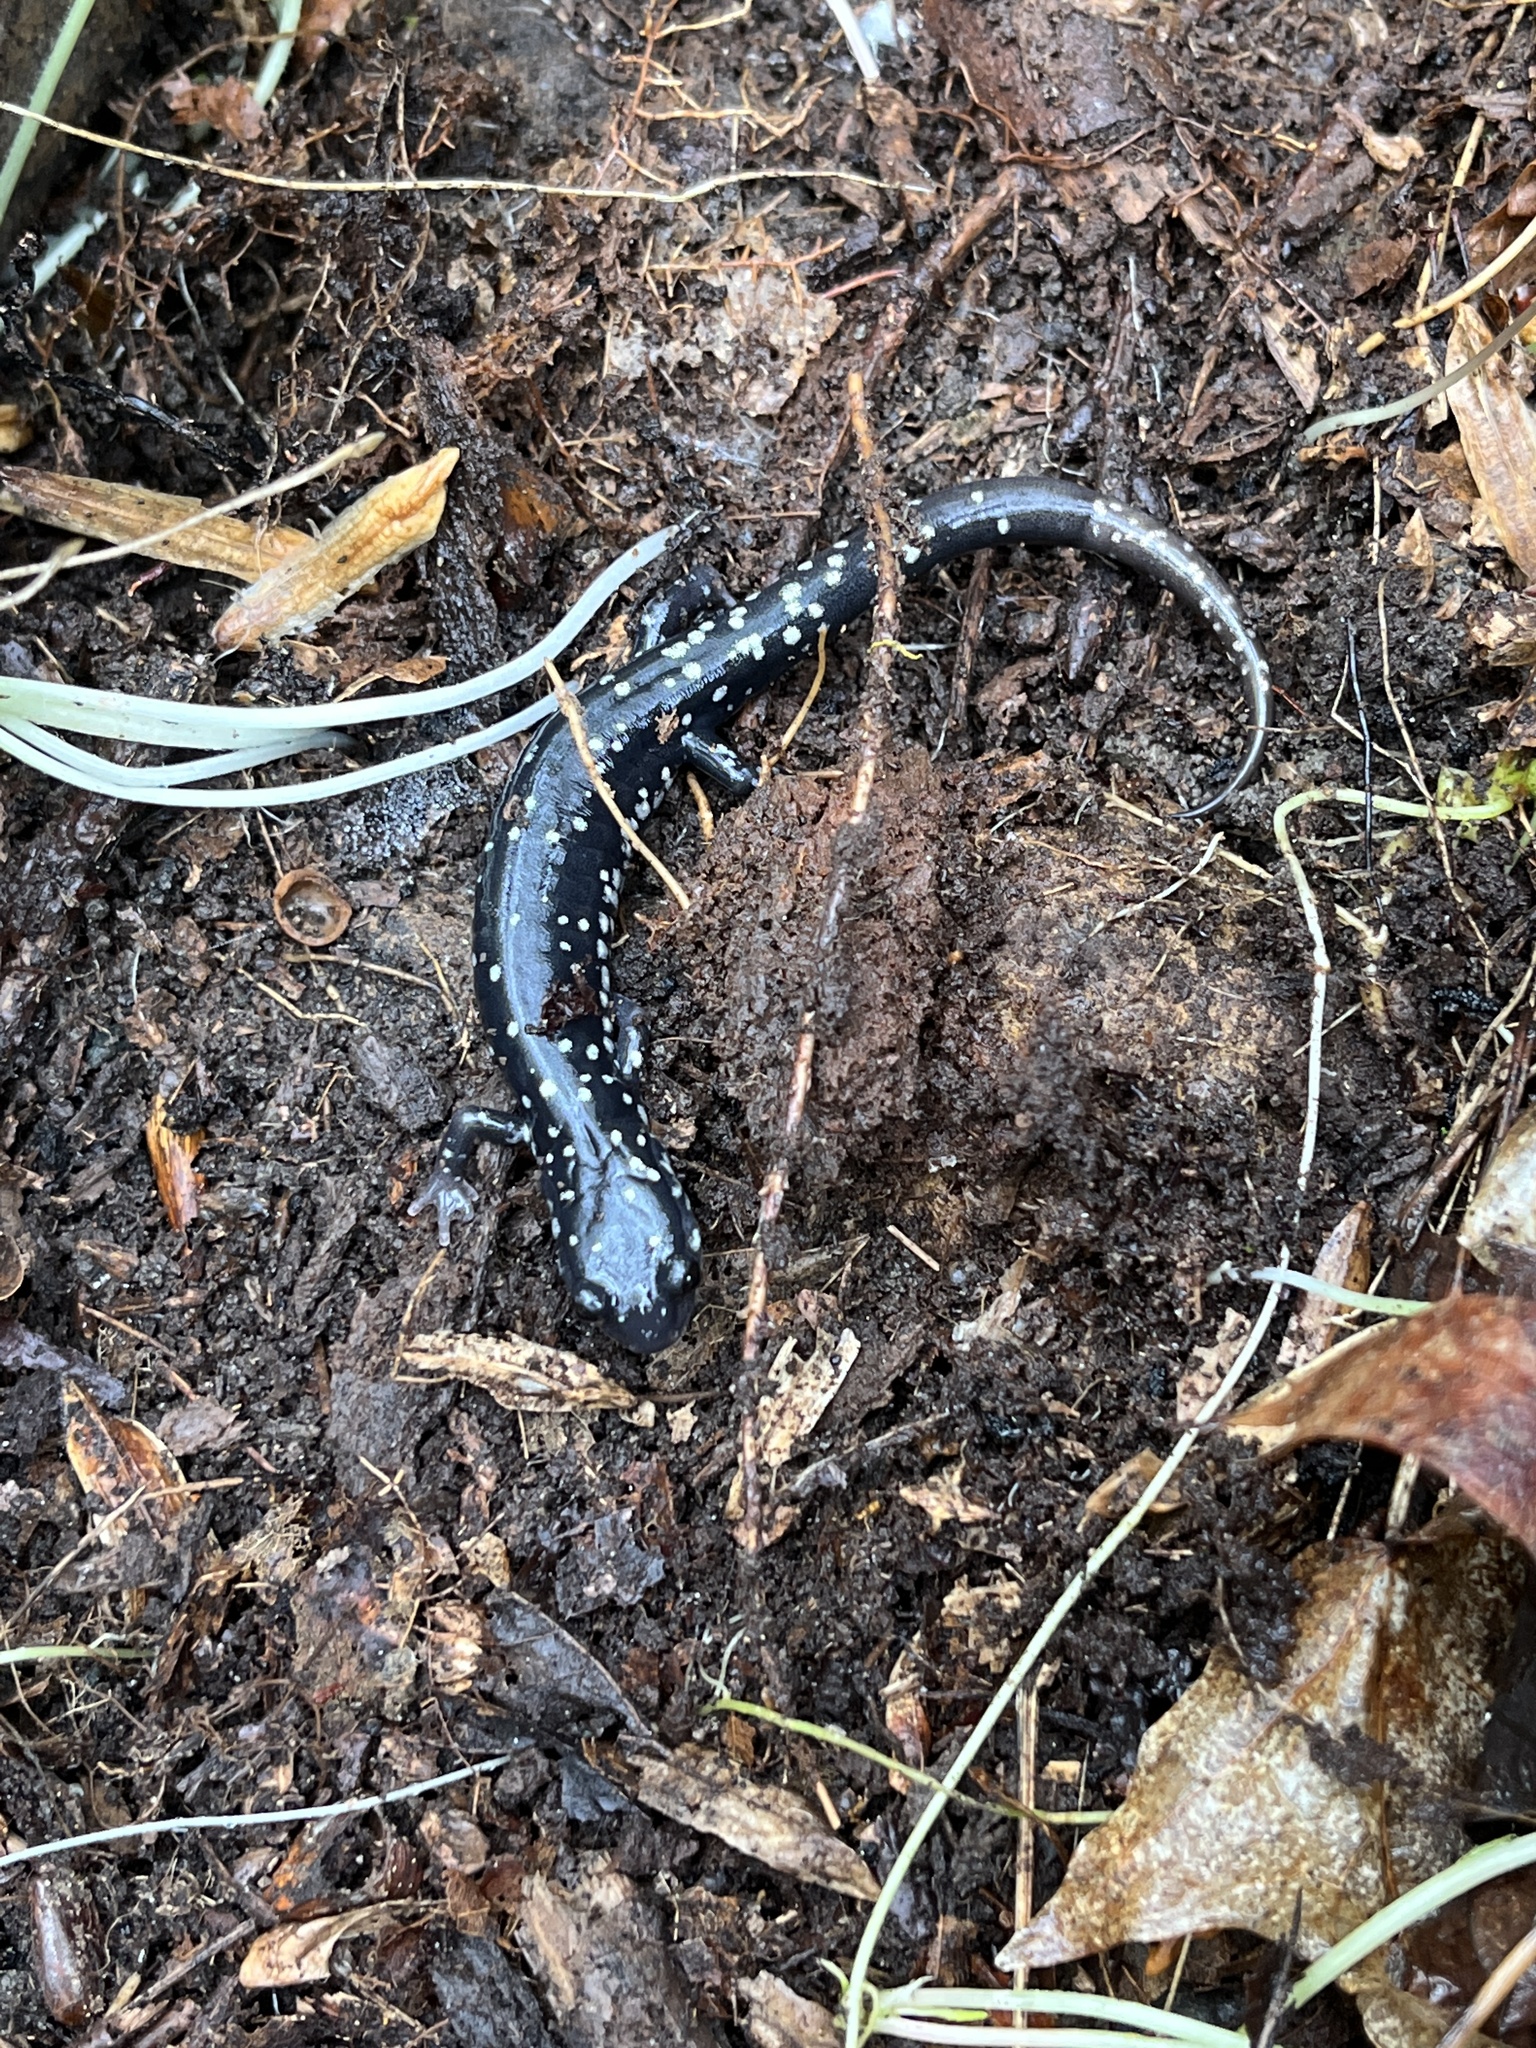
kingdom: Animalia
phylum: Chordata
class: Amphibia
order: Caudata
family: Plethodontidae
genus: Plethodon
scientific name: Plethodon glutinosus
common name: Northern slimy salamander
